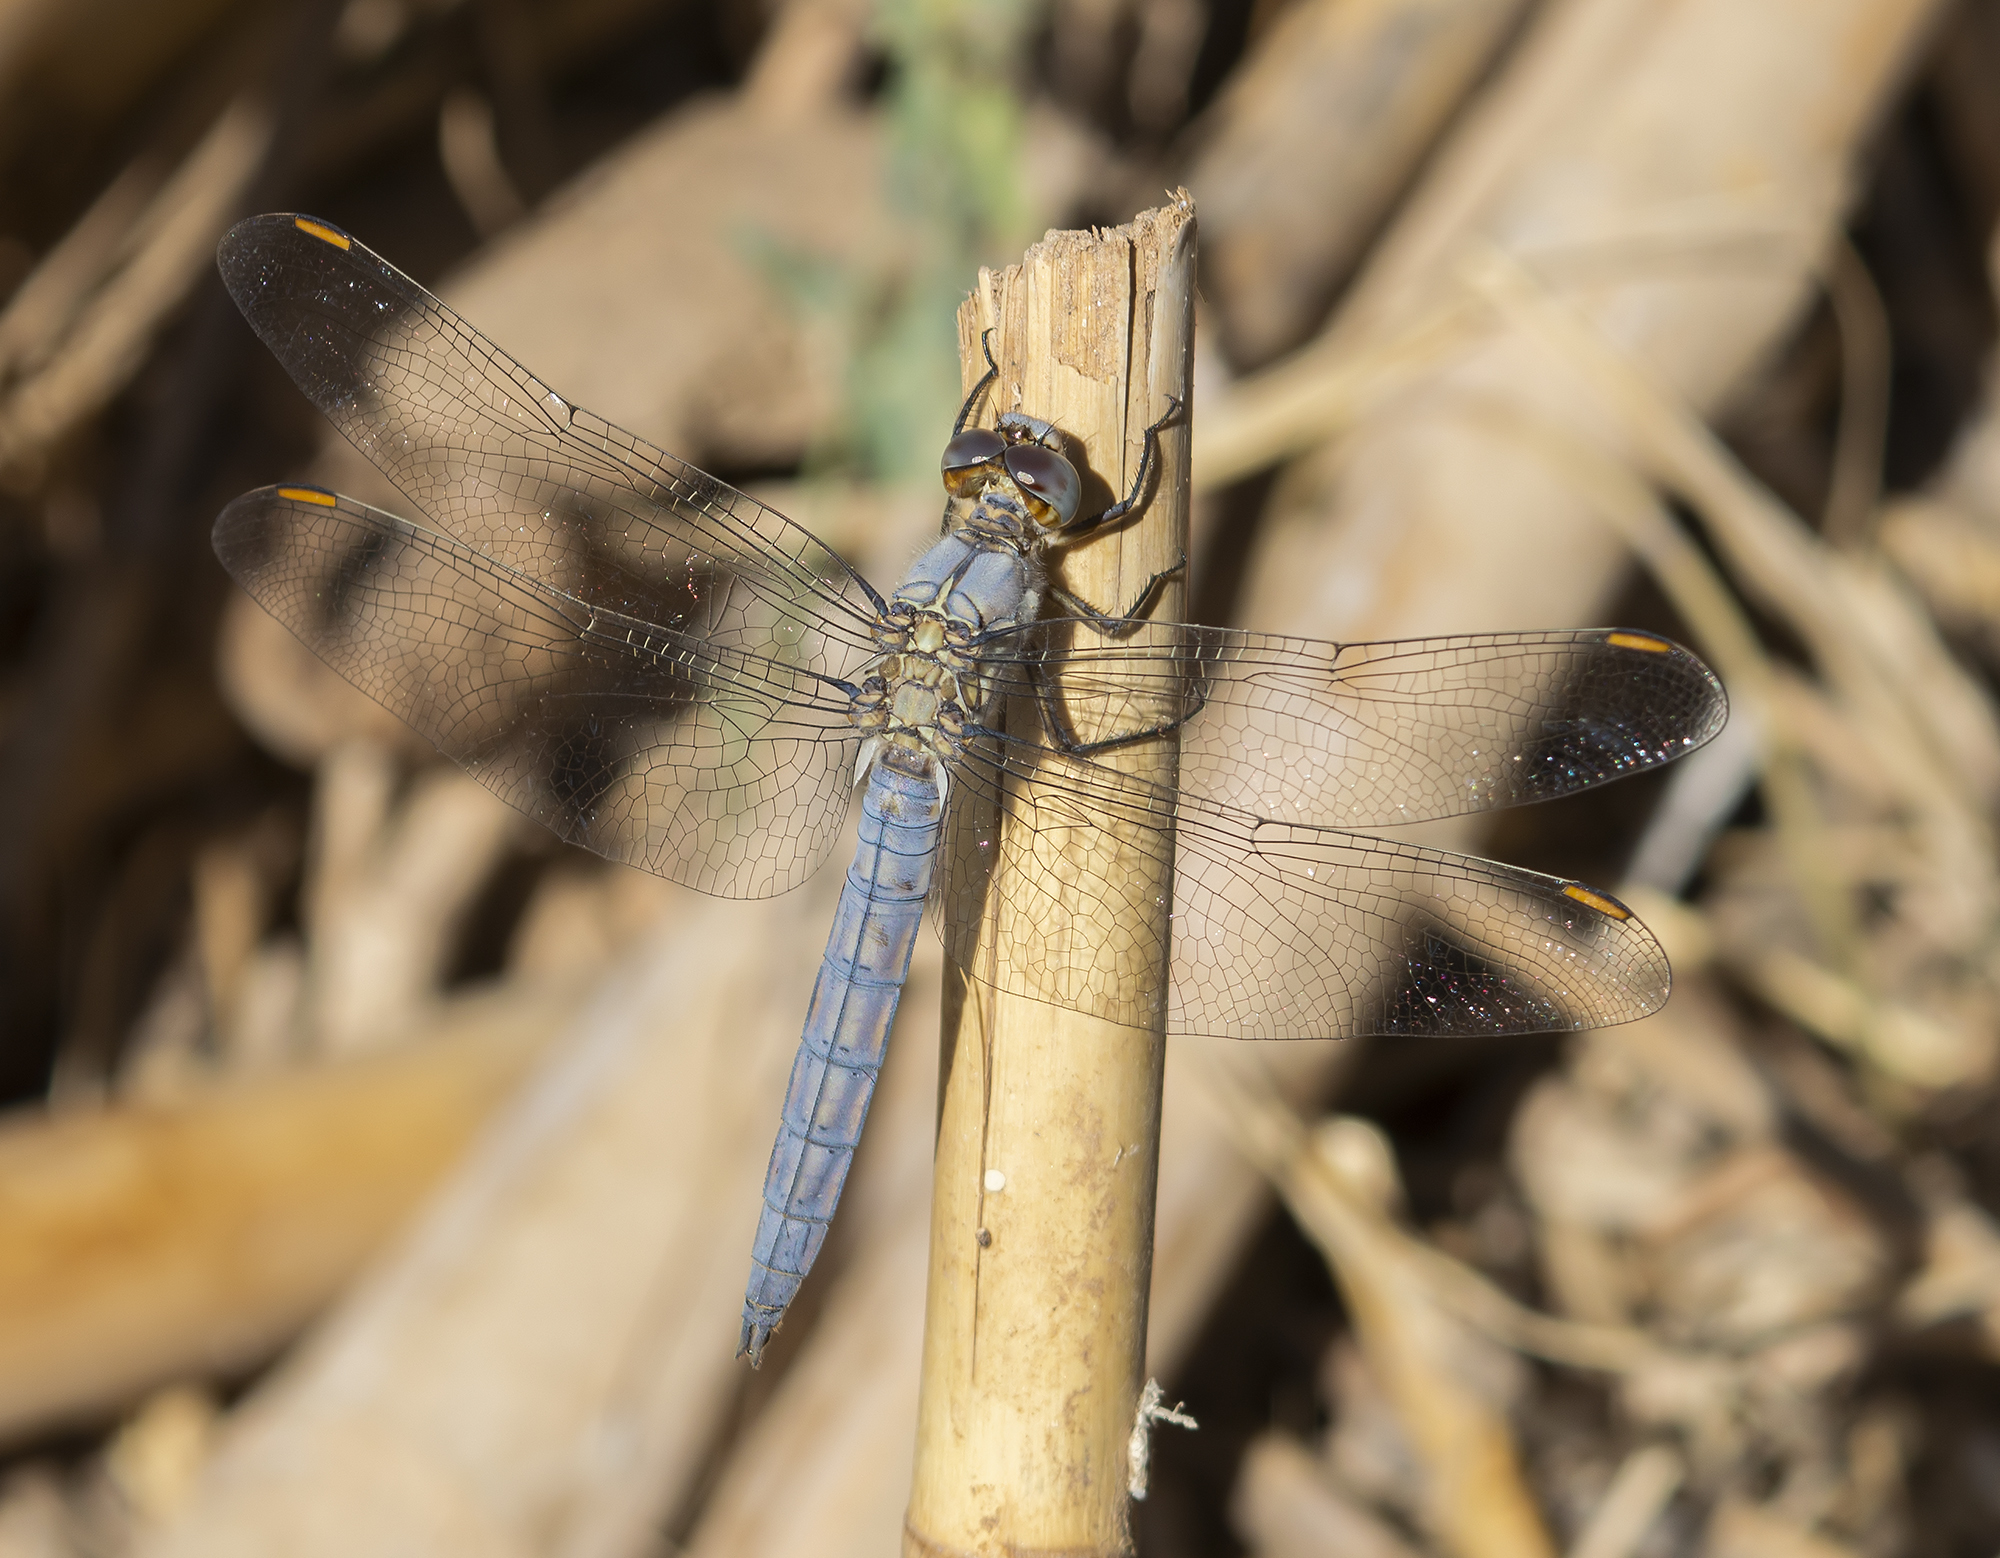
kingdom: Animalia
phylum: Arthropoda
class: Insecta
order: Odonata
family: Libellulidae
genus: Orthetrum
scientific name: Orthetrum taeniolatum
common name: Small skimmer
